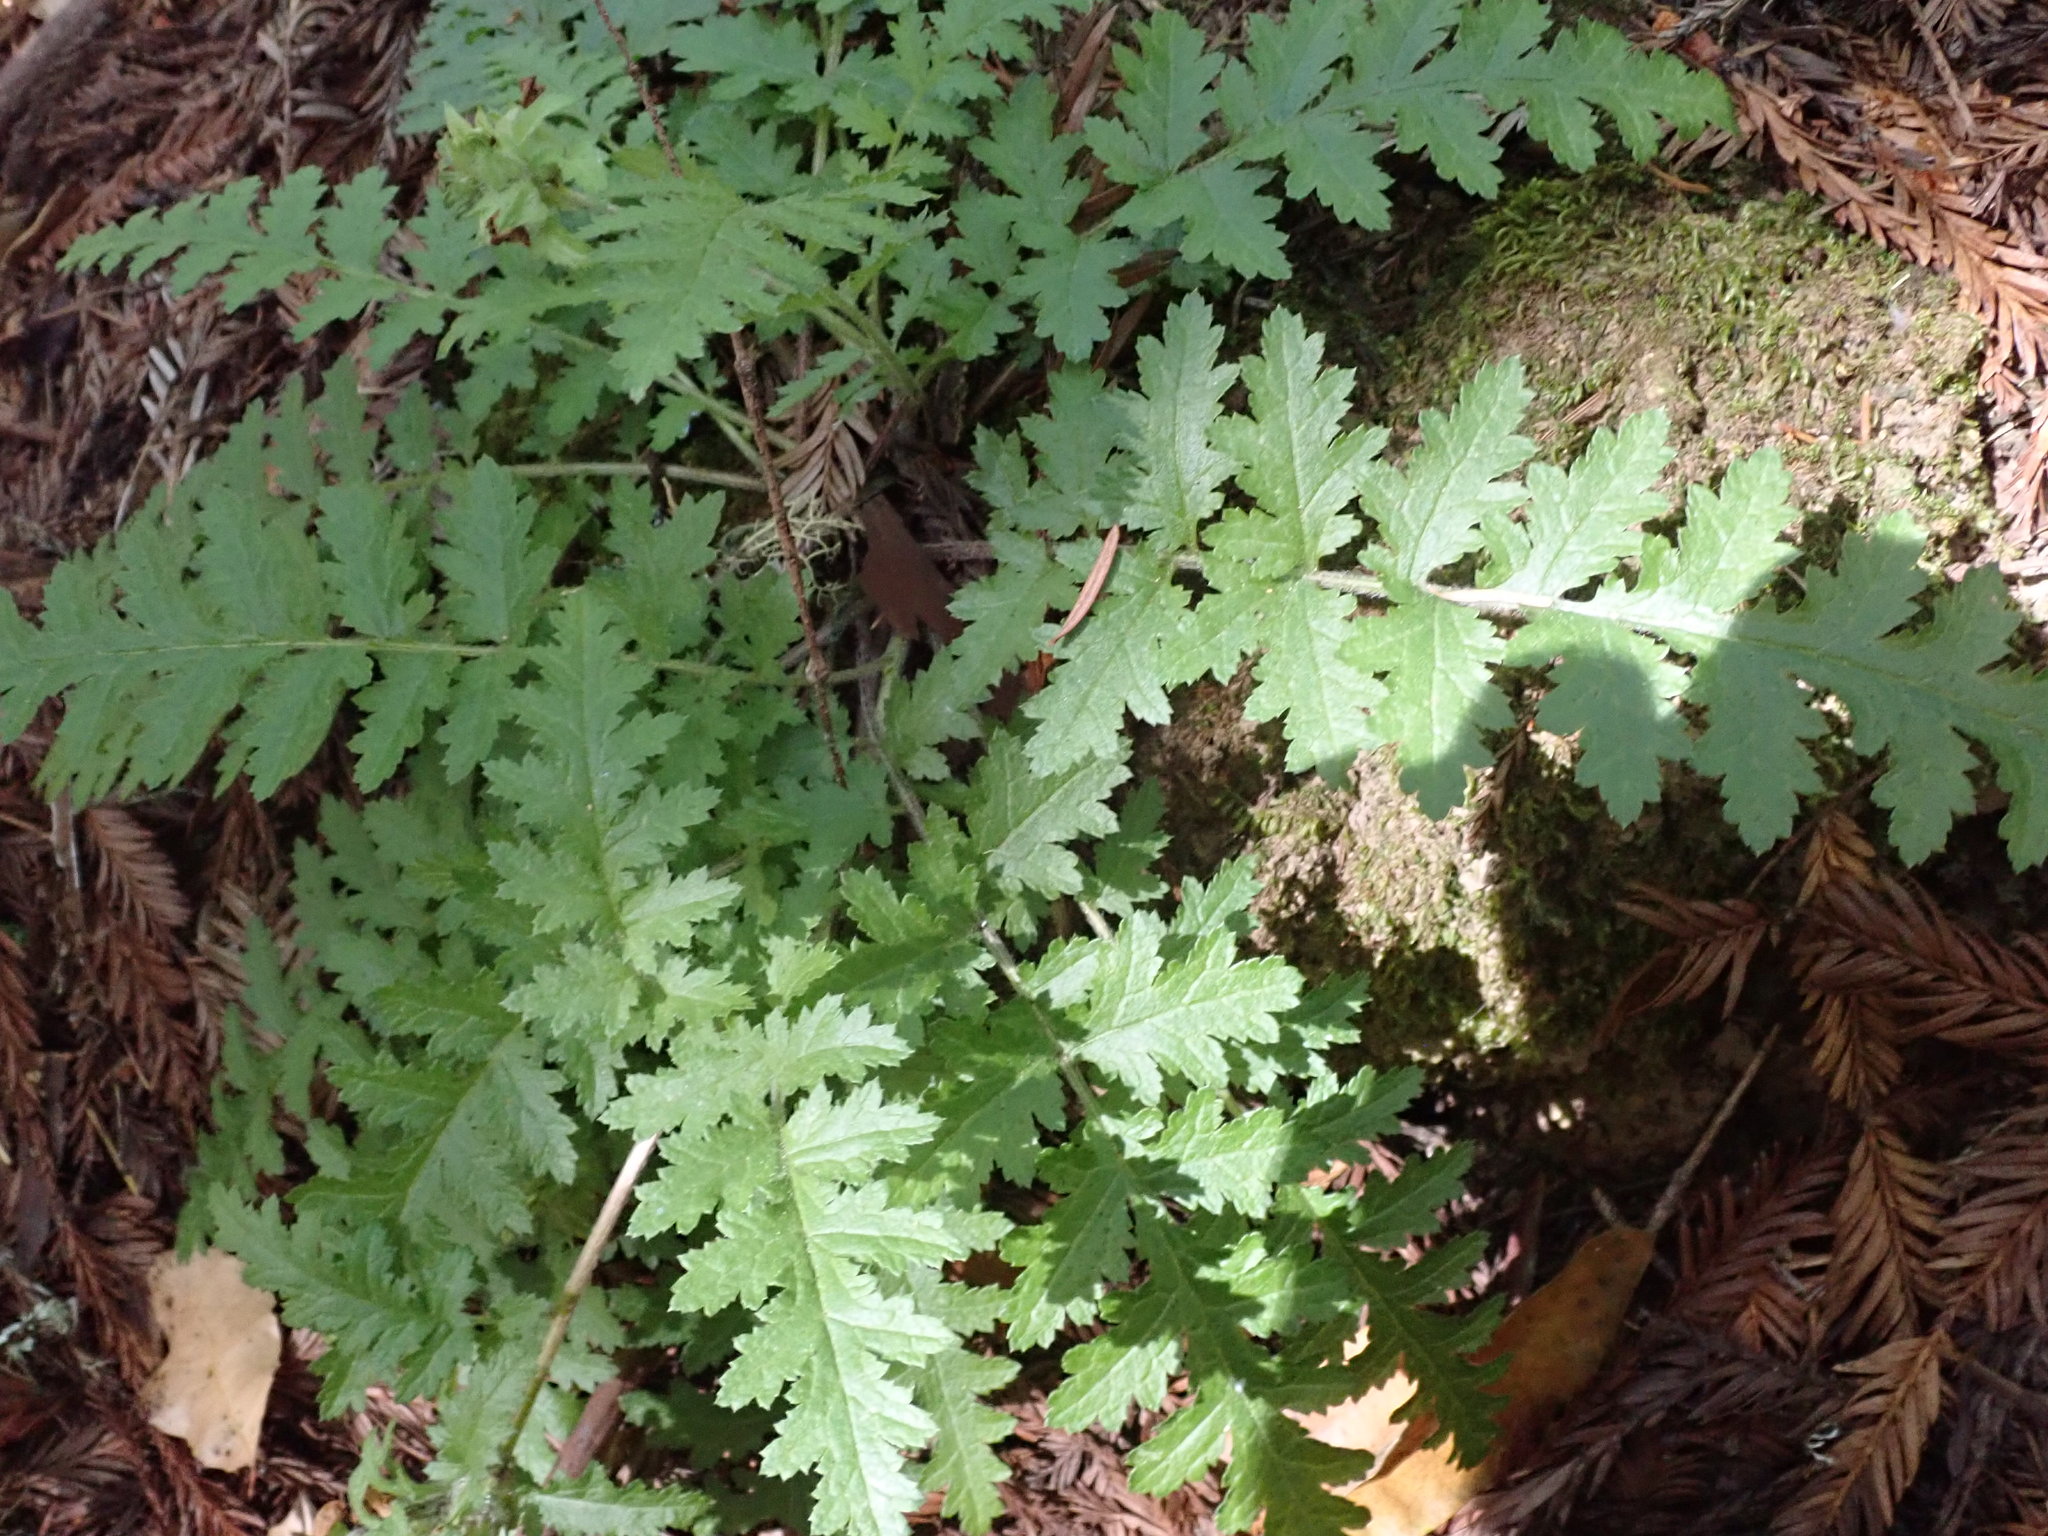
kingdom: Plantae
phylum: Tracheophyta
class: Magnoliopsida
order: Lamiales
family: Orobanchaceae
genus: Pedicularis
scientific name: Pedicularis dudleyi
